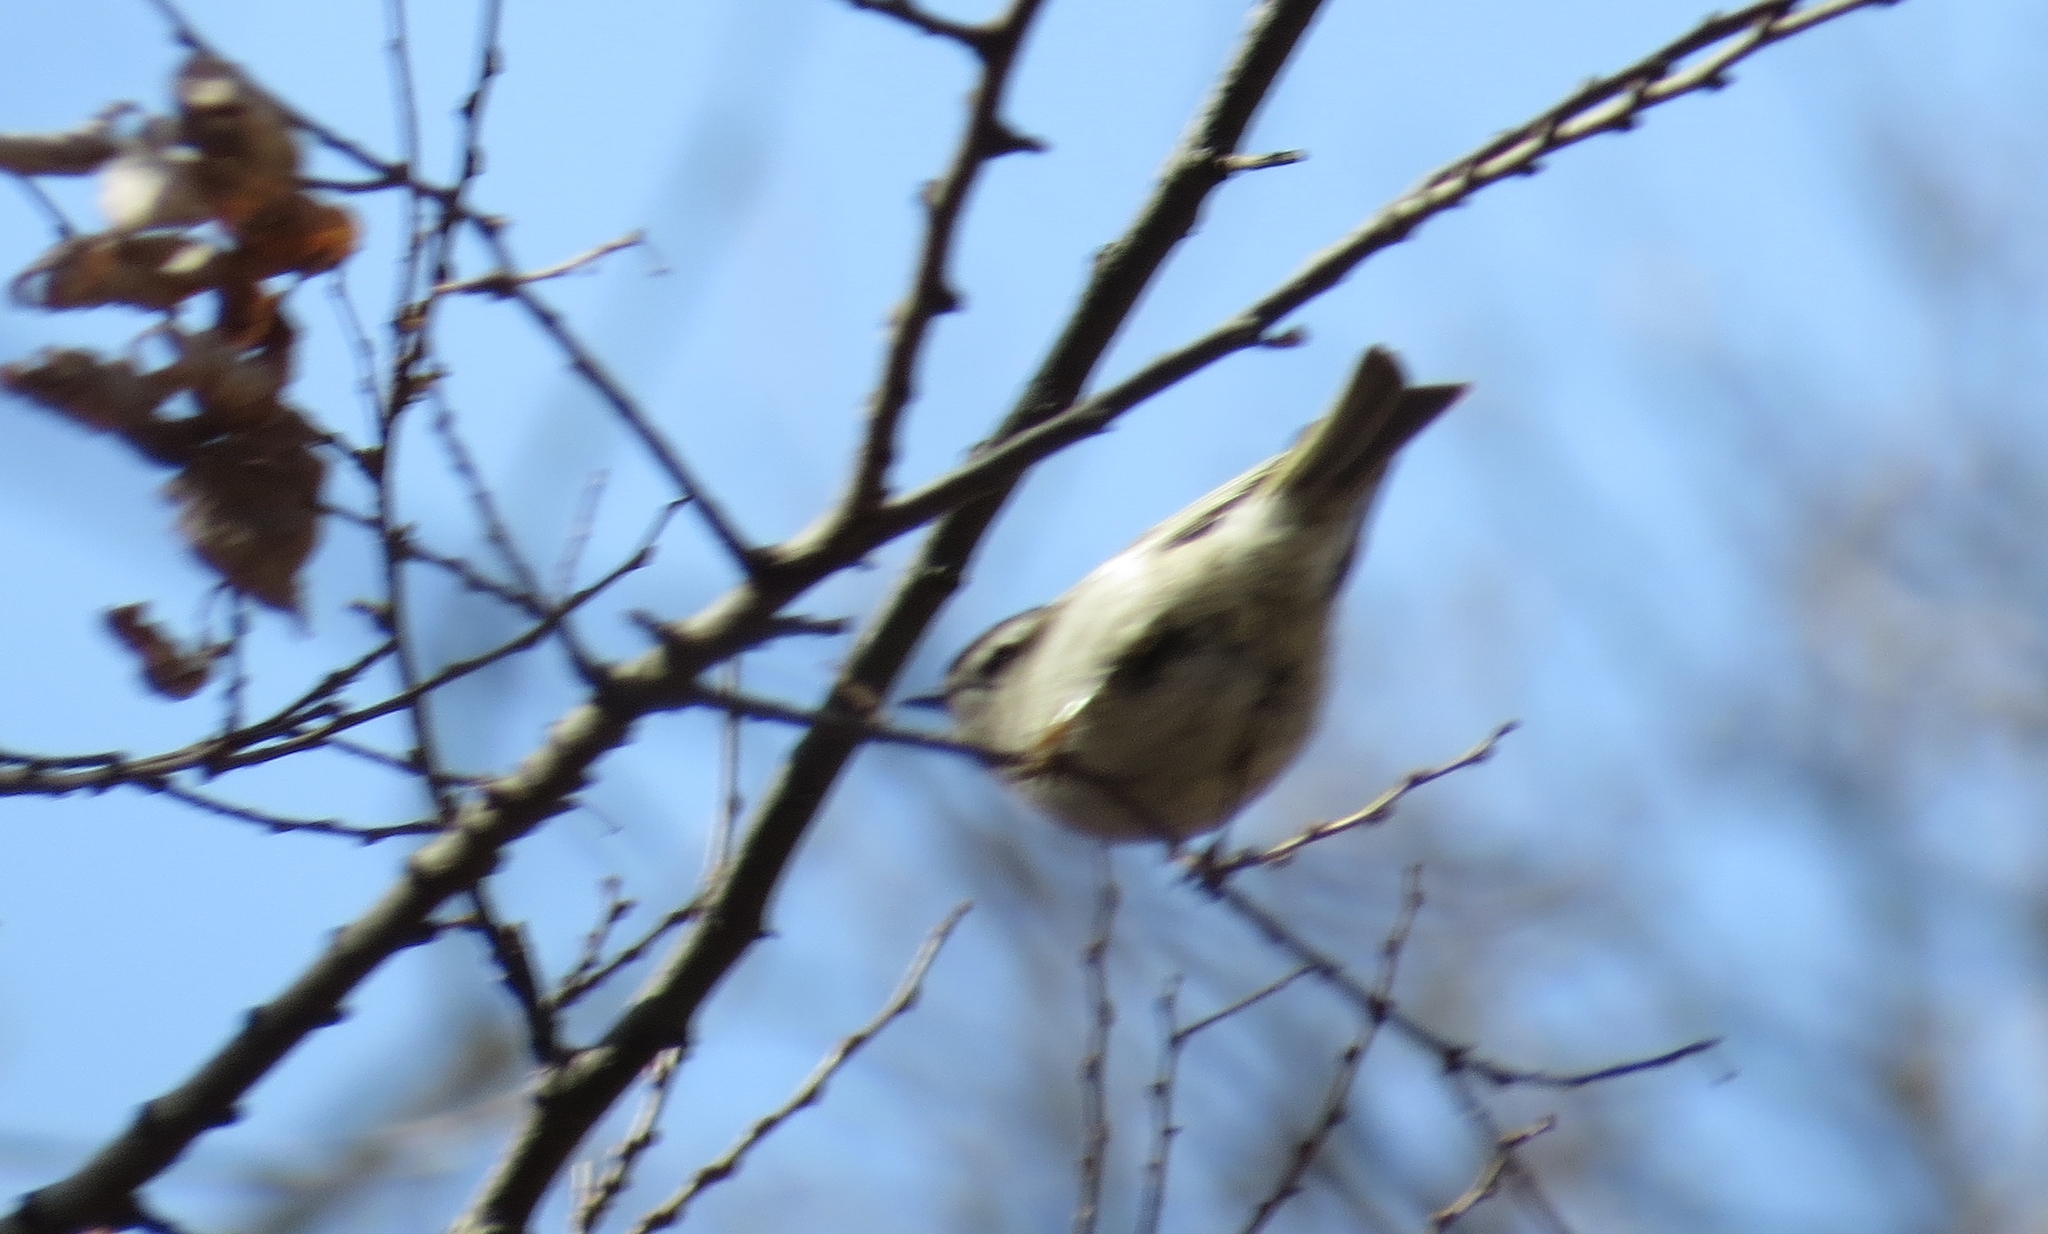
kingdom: Animalia
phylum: Chordata
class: Aves
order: Passeriformes
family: Regulidae
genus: Regulus
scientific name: Regulus satrapa
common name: Golden-crowned kinglet
